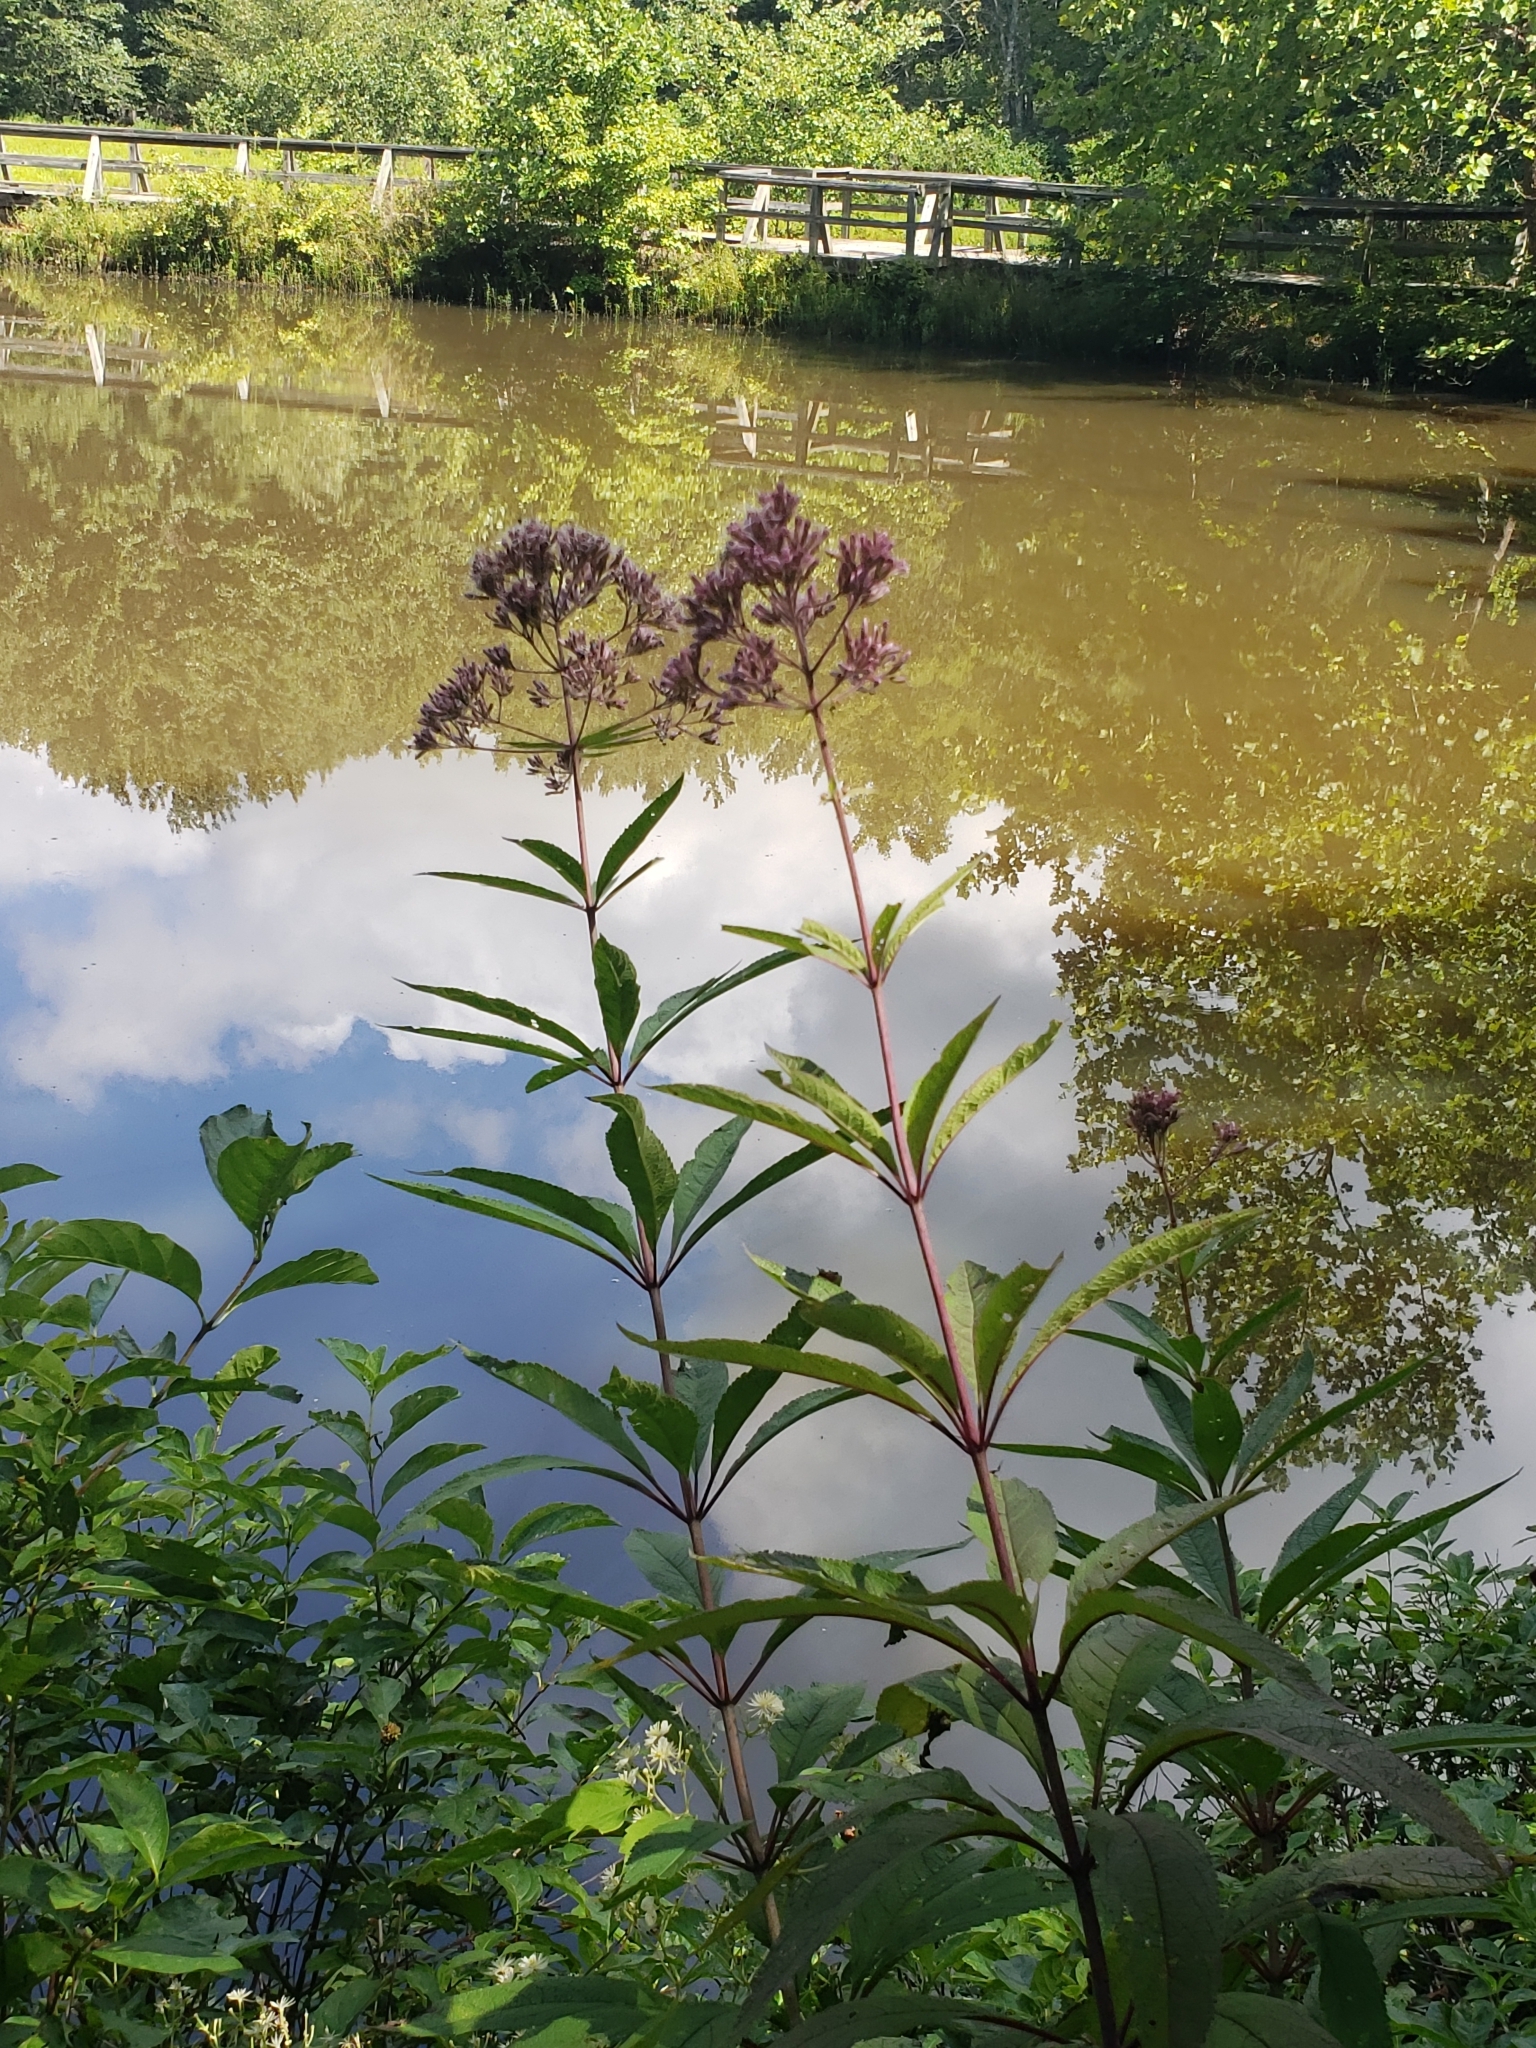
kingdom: Plantae
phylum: Tracheophyta
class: Magnoliopsida
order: Asterales
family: Asteraceae
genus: Eutrochium
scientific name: Eutrochium fistulosum
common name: Trumpetweed
